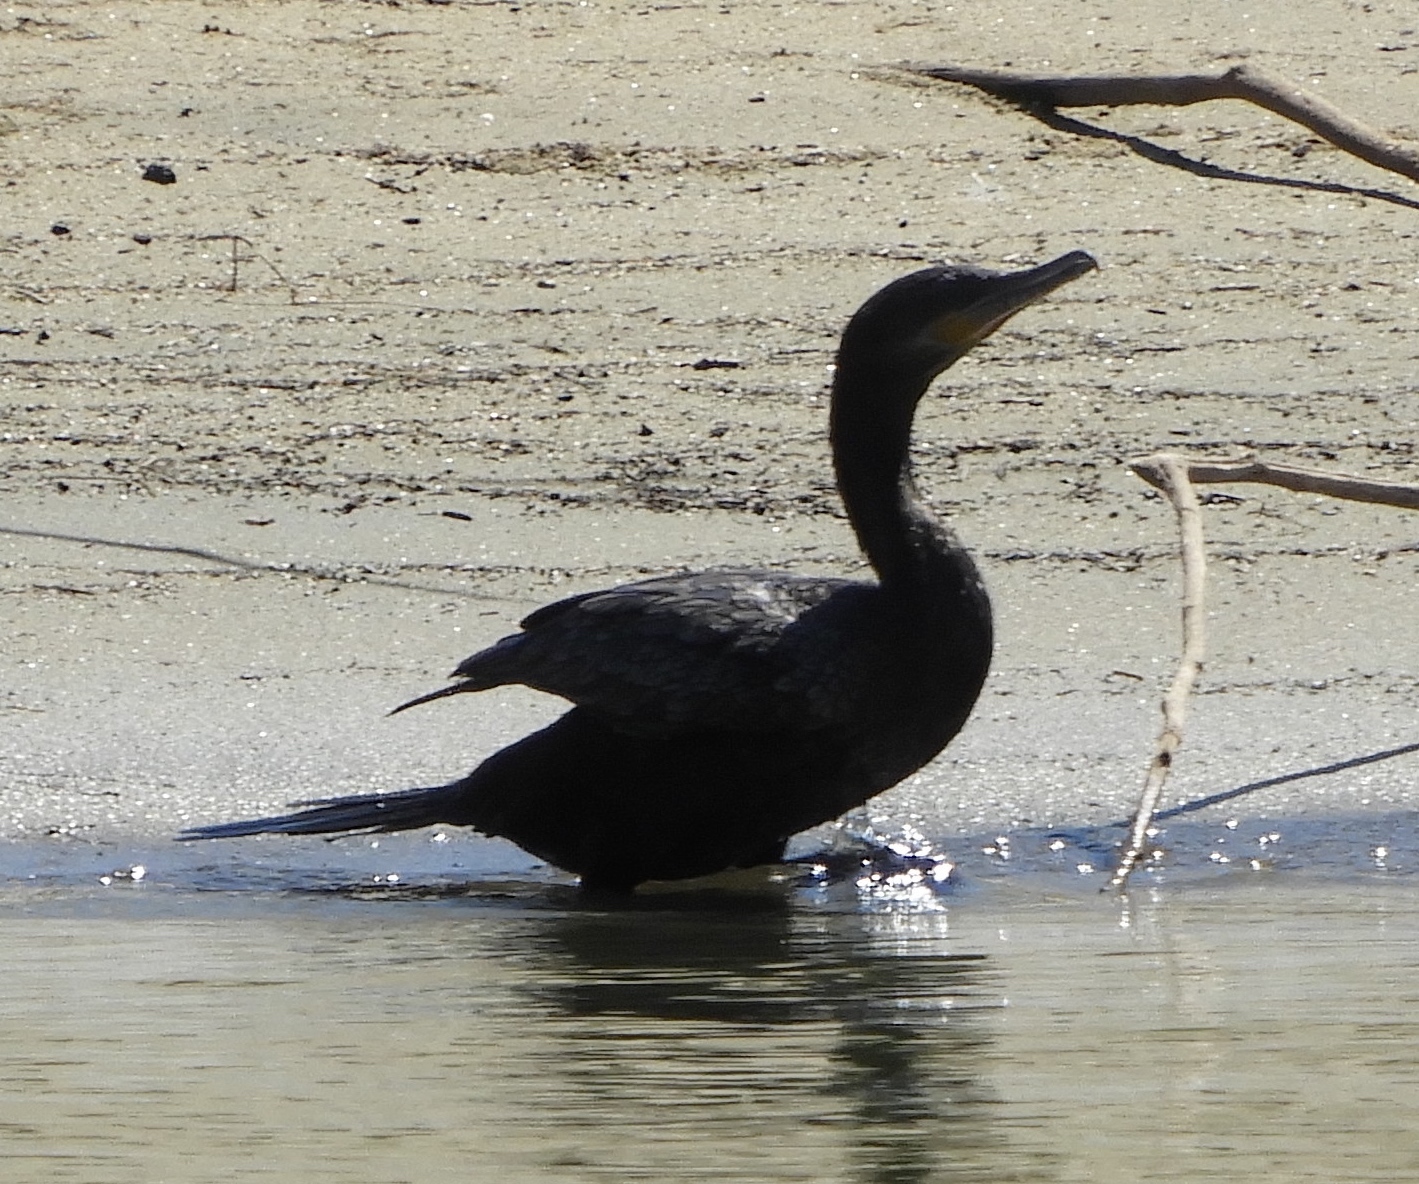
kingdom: Animalia
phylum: Chordata
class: Aves
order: Suliformes
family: Phalacrocoracidae
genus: Phalacrocorax
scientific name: Phalacrocorax brasilianus
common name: Neotropic cormorant
